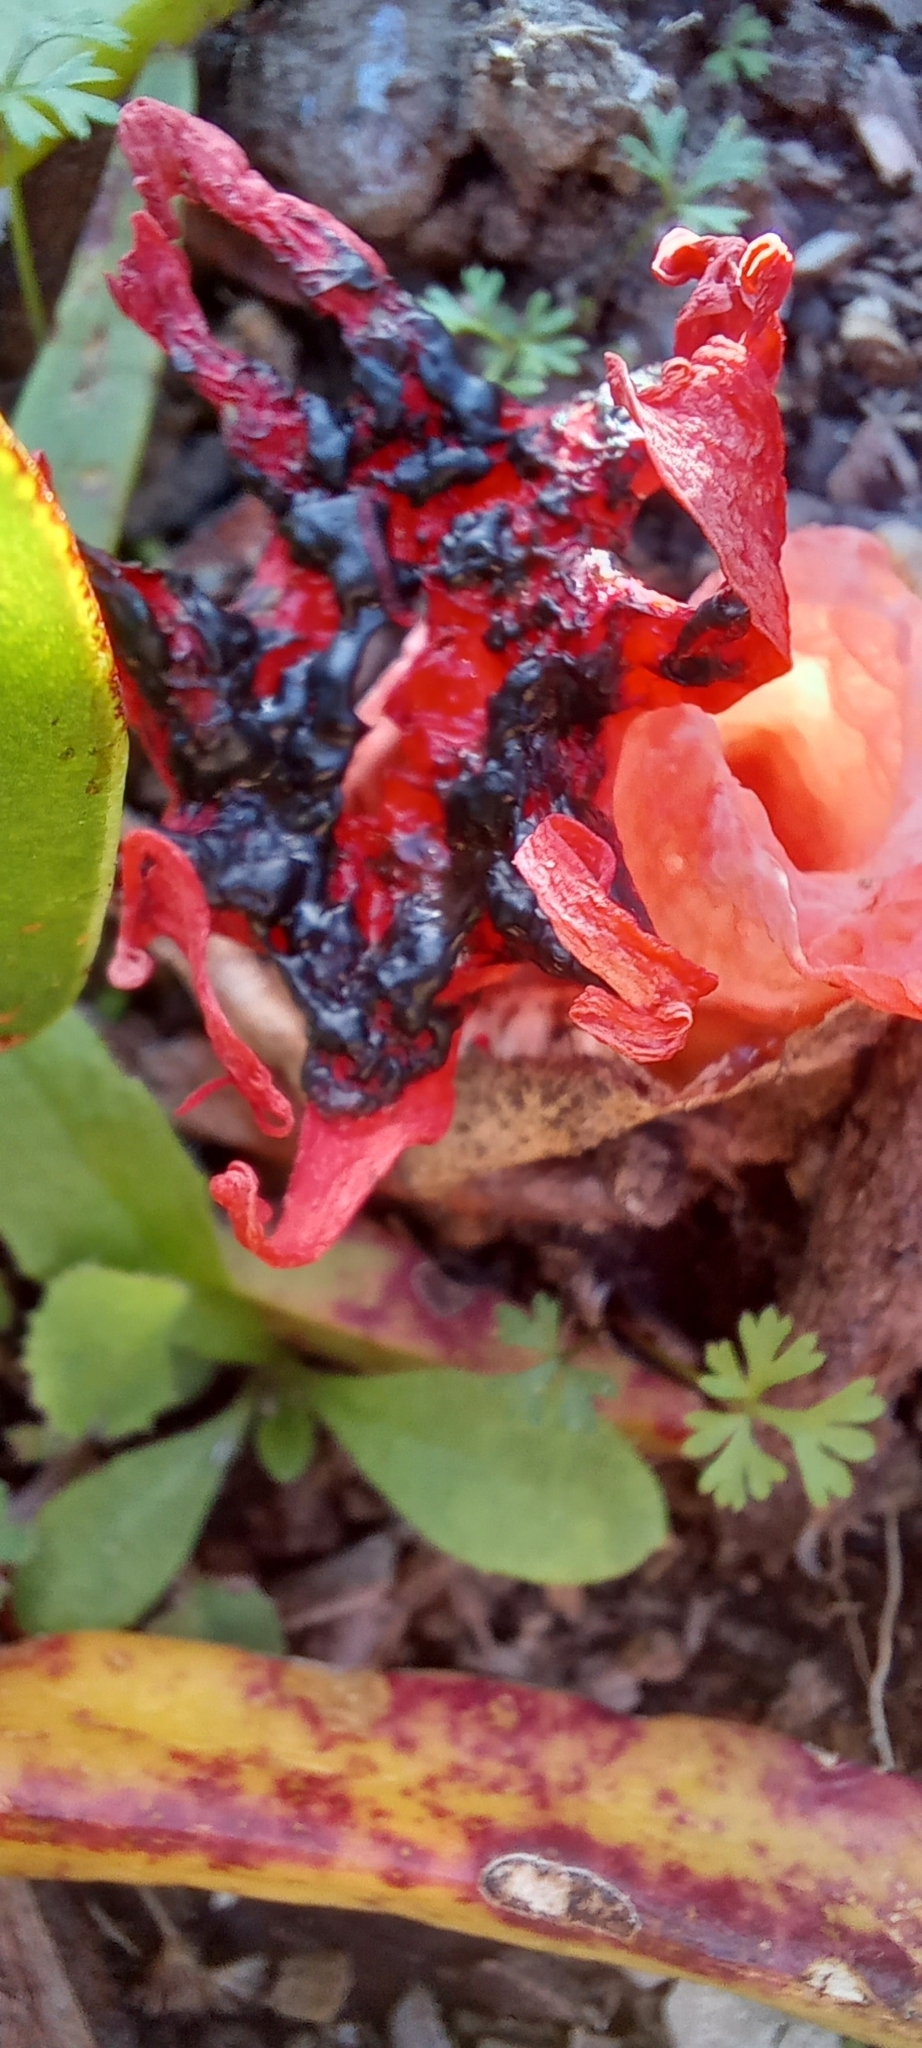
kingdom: Fungi
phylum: Basidiomycota
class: Agaricomycetes
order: Phallales
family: Phallaceae
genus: Aseroe
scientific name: Aseroe rubra
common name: Starfish fungus
